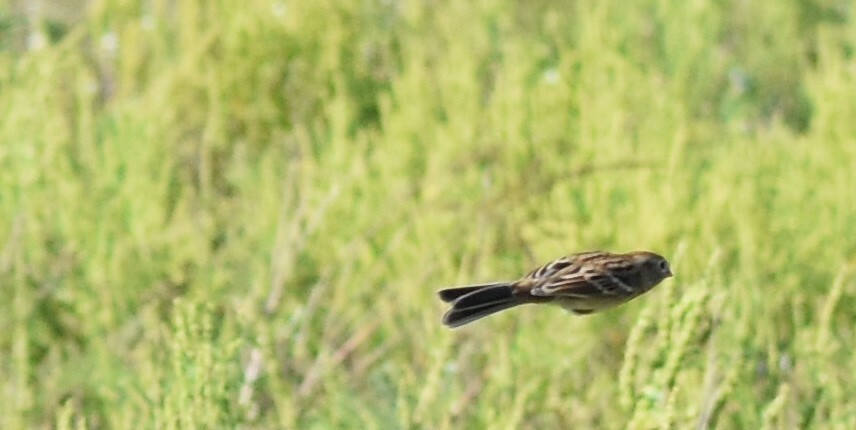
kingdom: Animalia
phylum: Chordata
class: Aves
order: Passeriformes
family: Passerellidae
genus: Spizella
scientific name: Spizella pusilla
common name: Field sparrow
